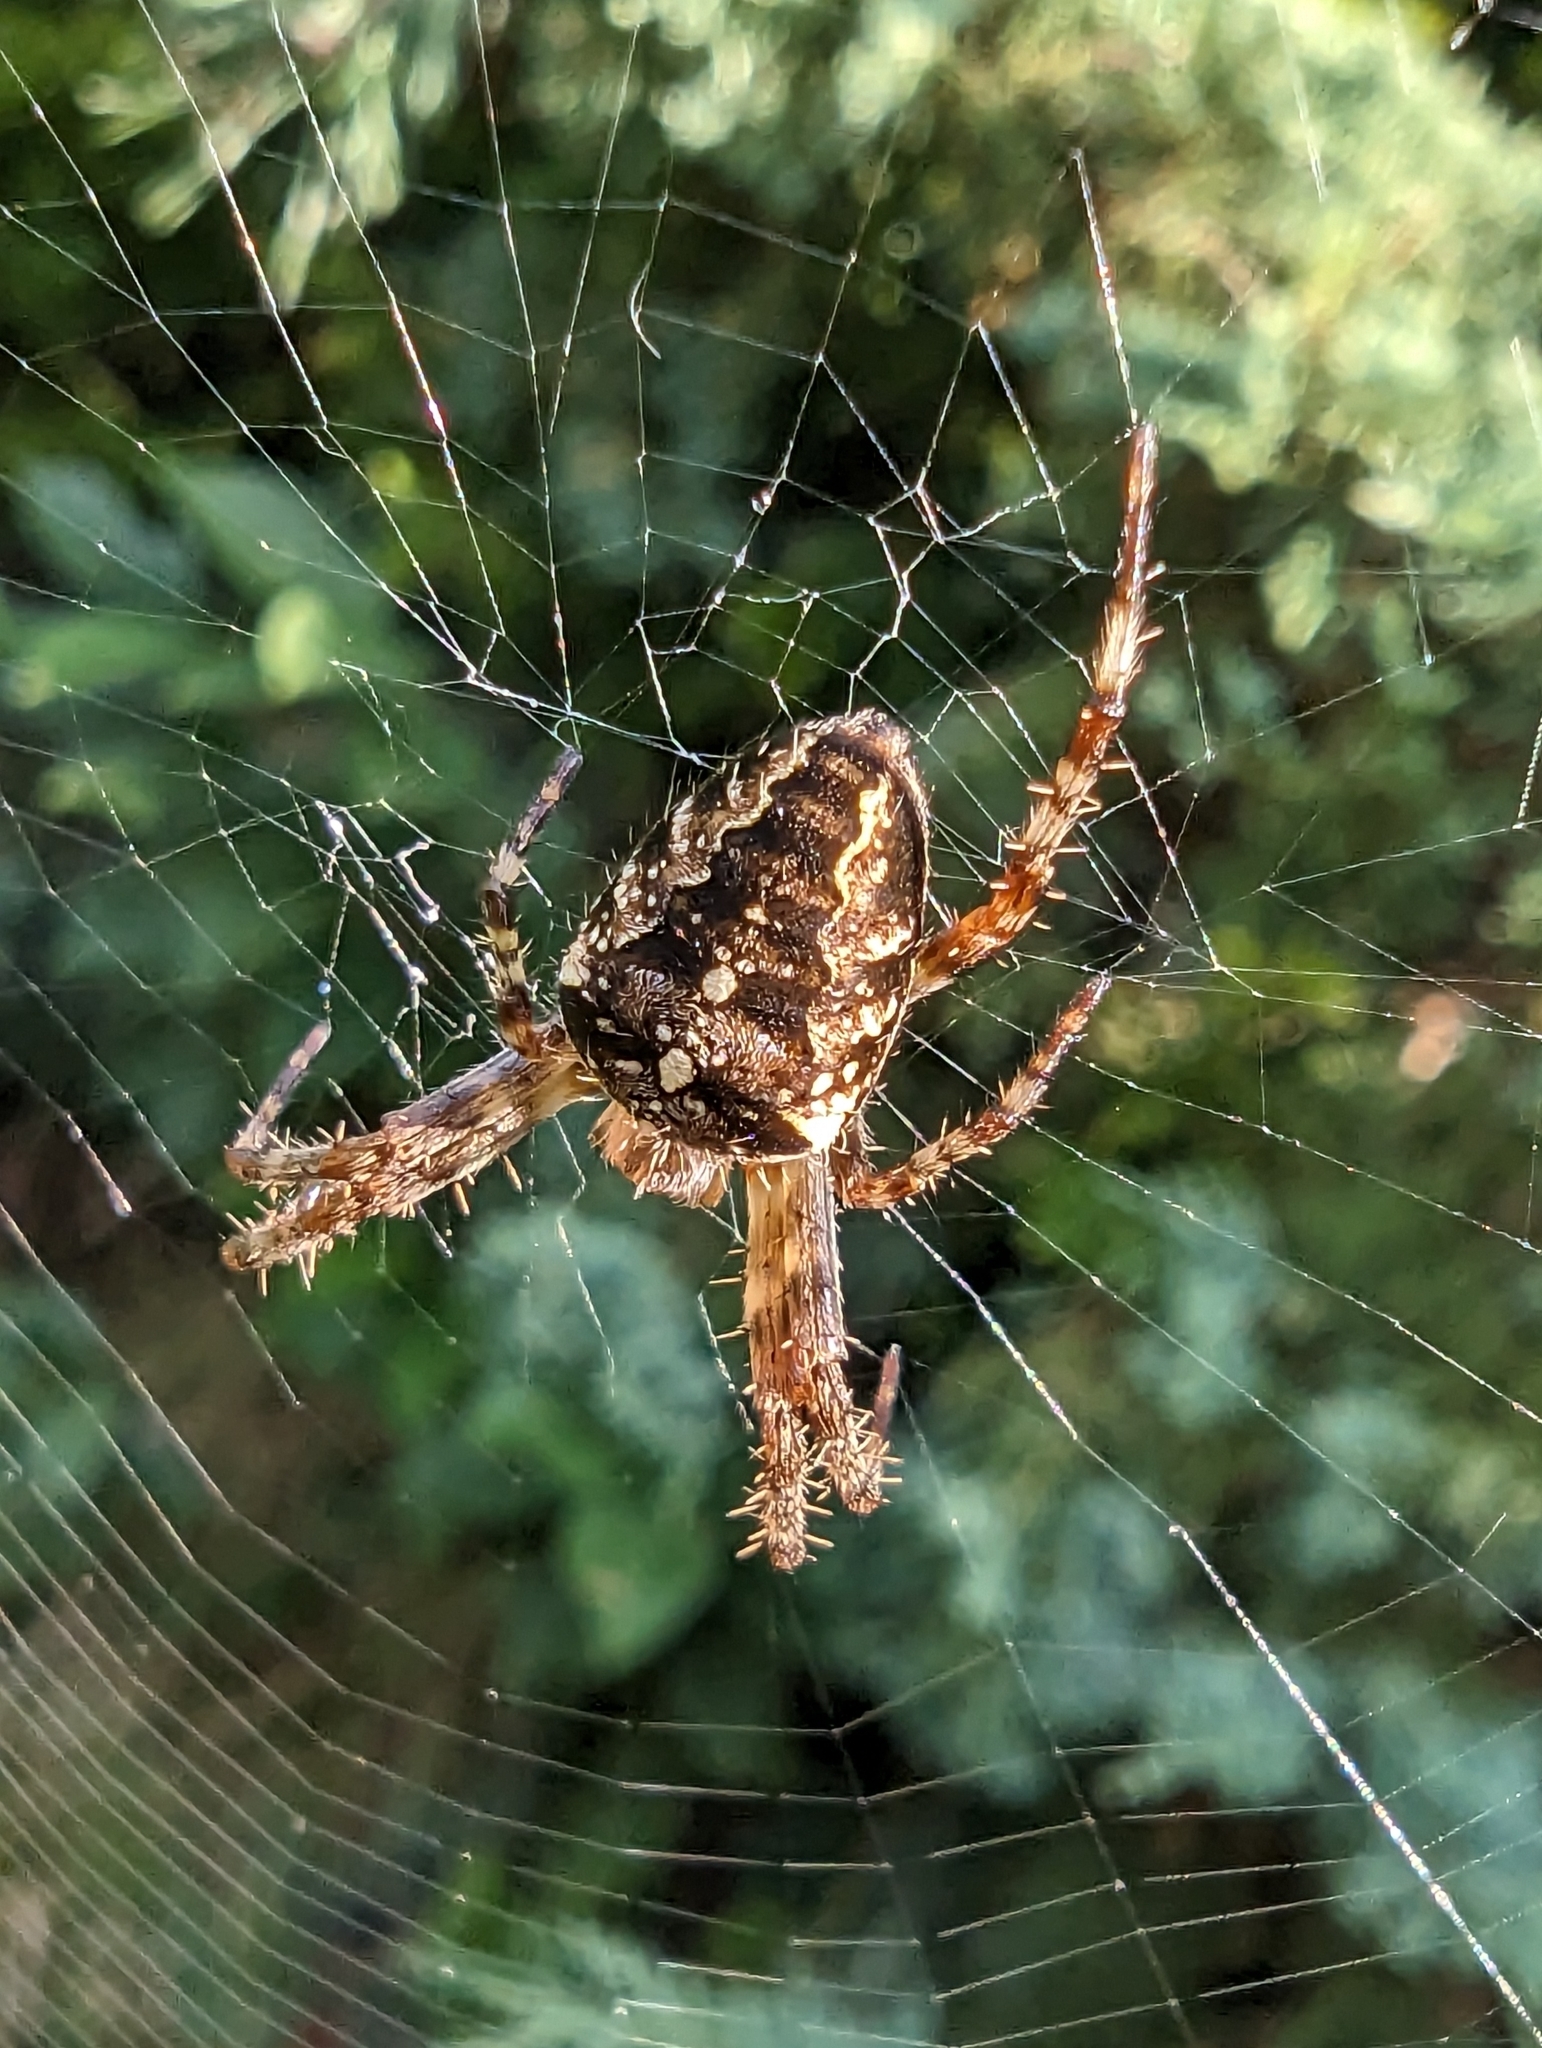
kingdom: Animalia
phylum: Arthropoda
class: Arachnida
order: Araneae
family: Araneidae
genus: Araneus
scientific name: Araneus diadematus
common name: Cross orbweaver
